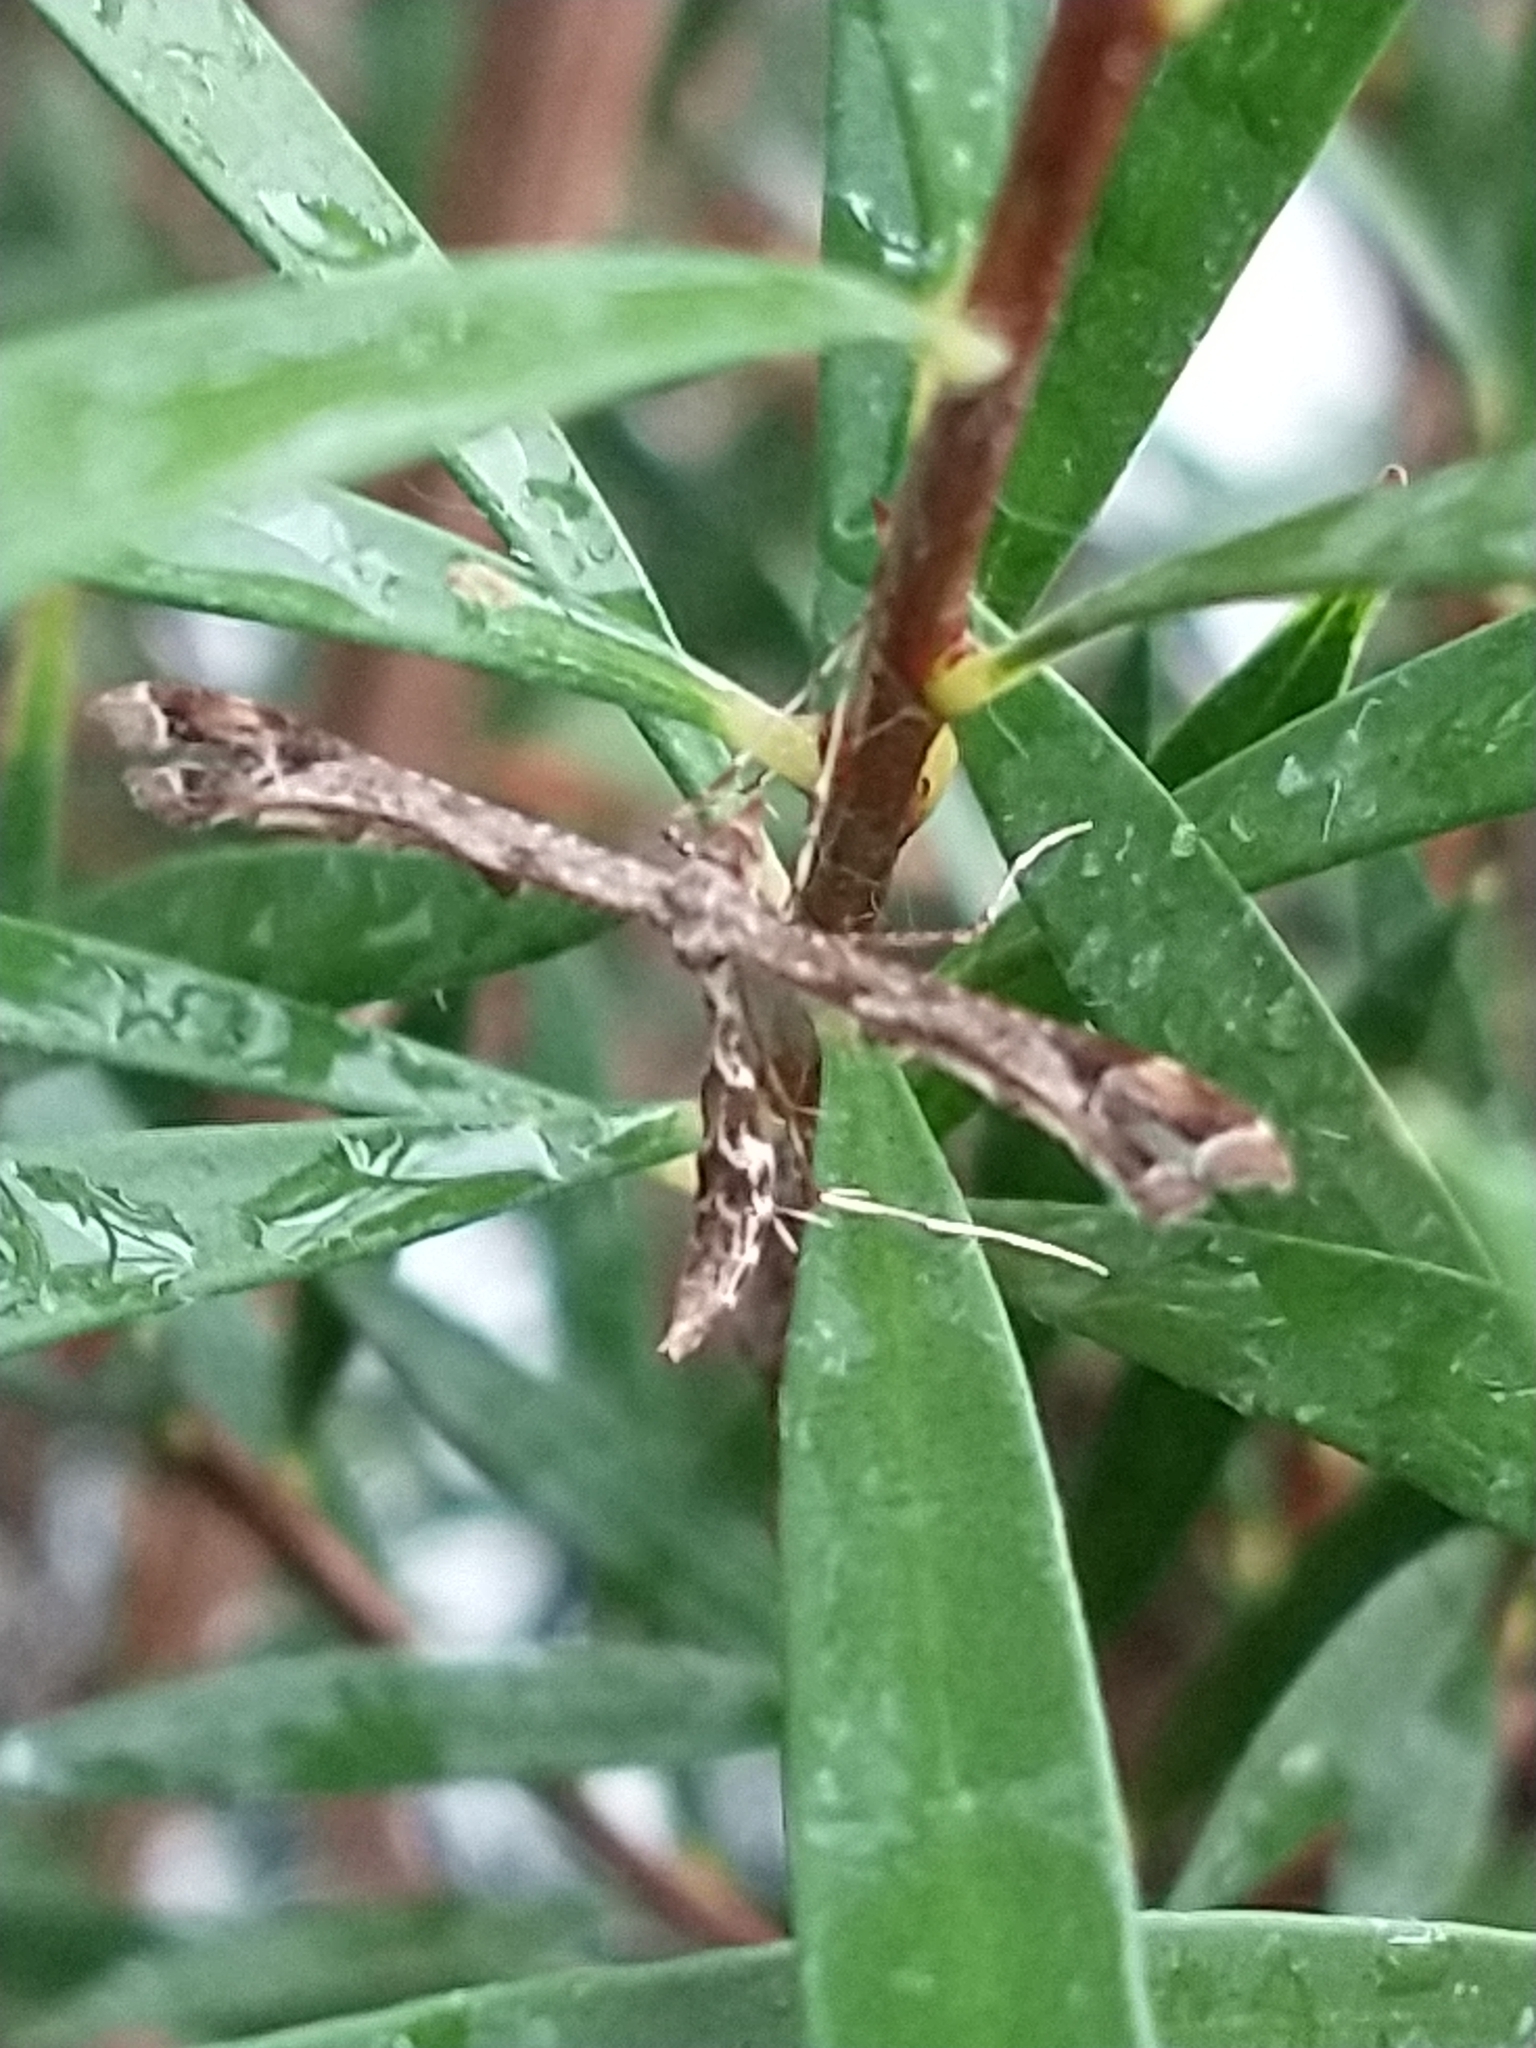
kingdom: Animalia
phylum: Arthropoda
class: Insecta
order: Lepidoptera
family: Pterophoridae
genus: Amblyptilia
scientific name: Amblyptilia acanthadactyla
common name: Beautiful plume
